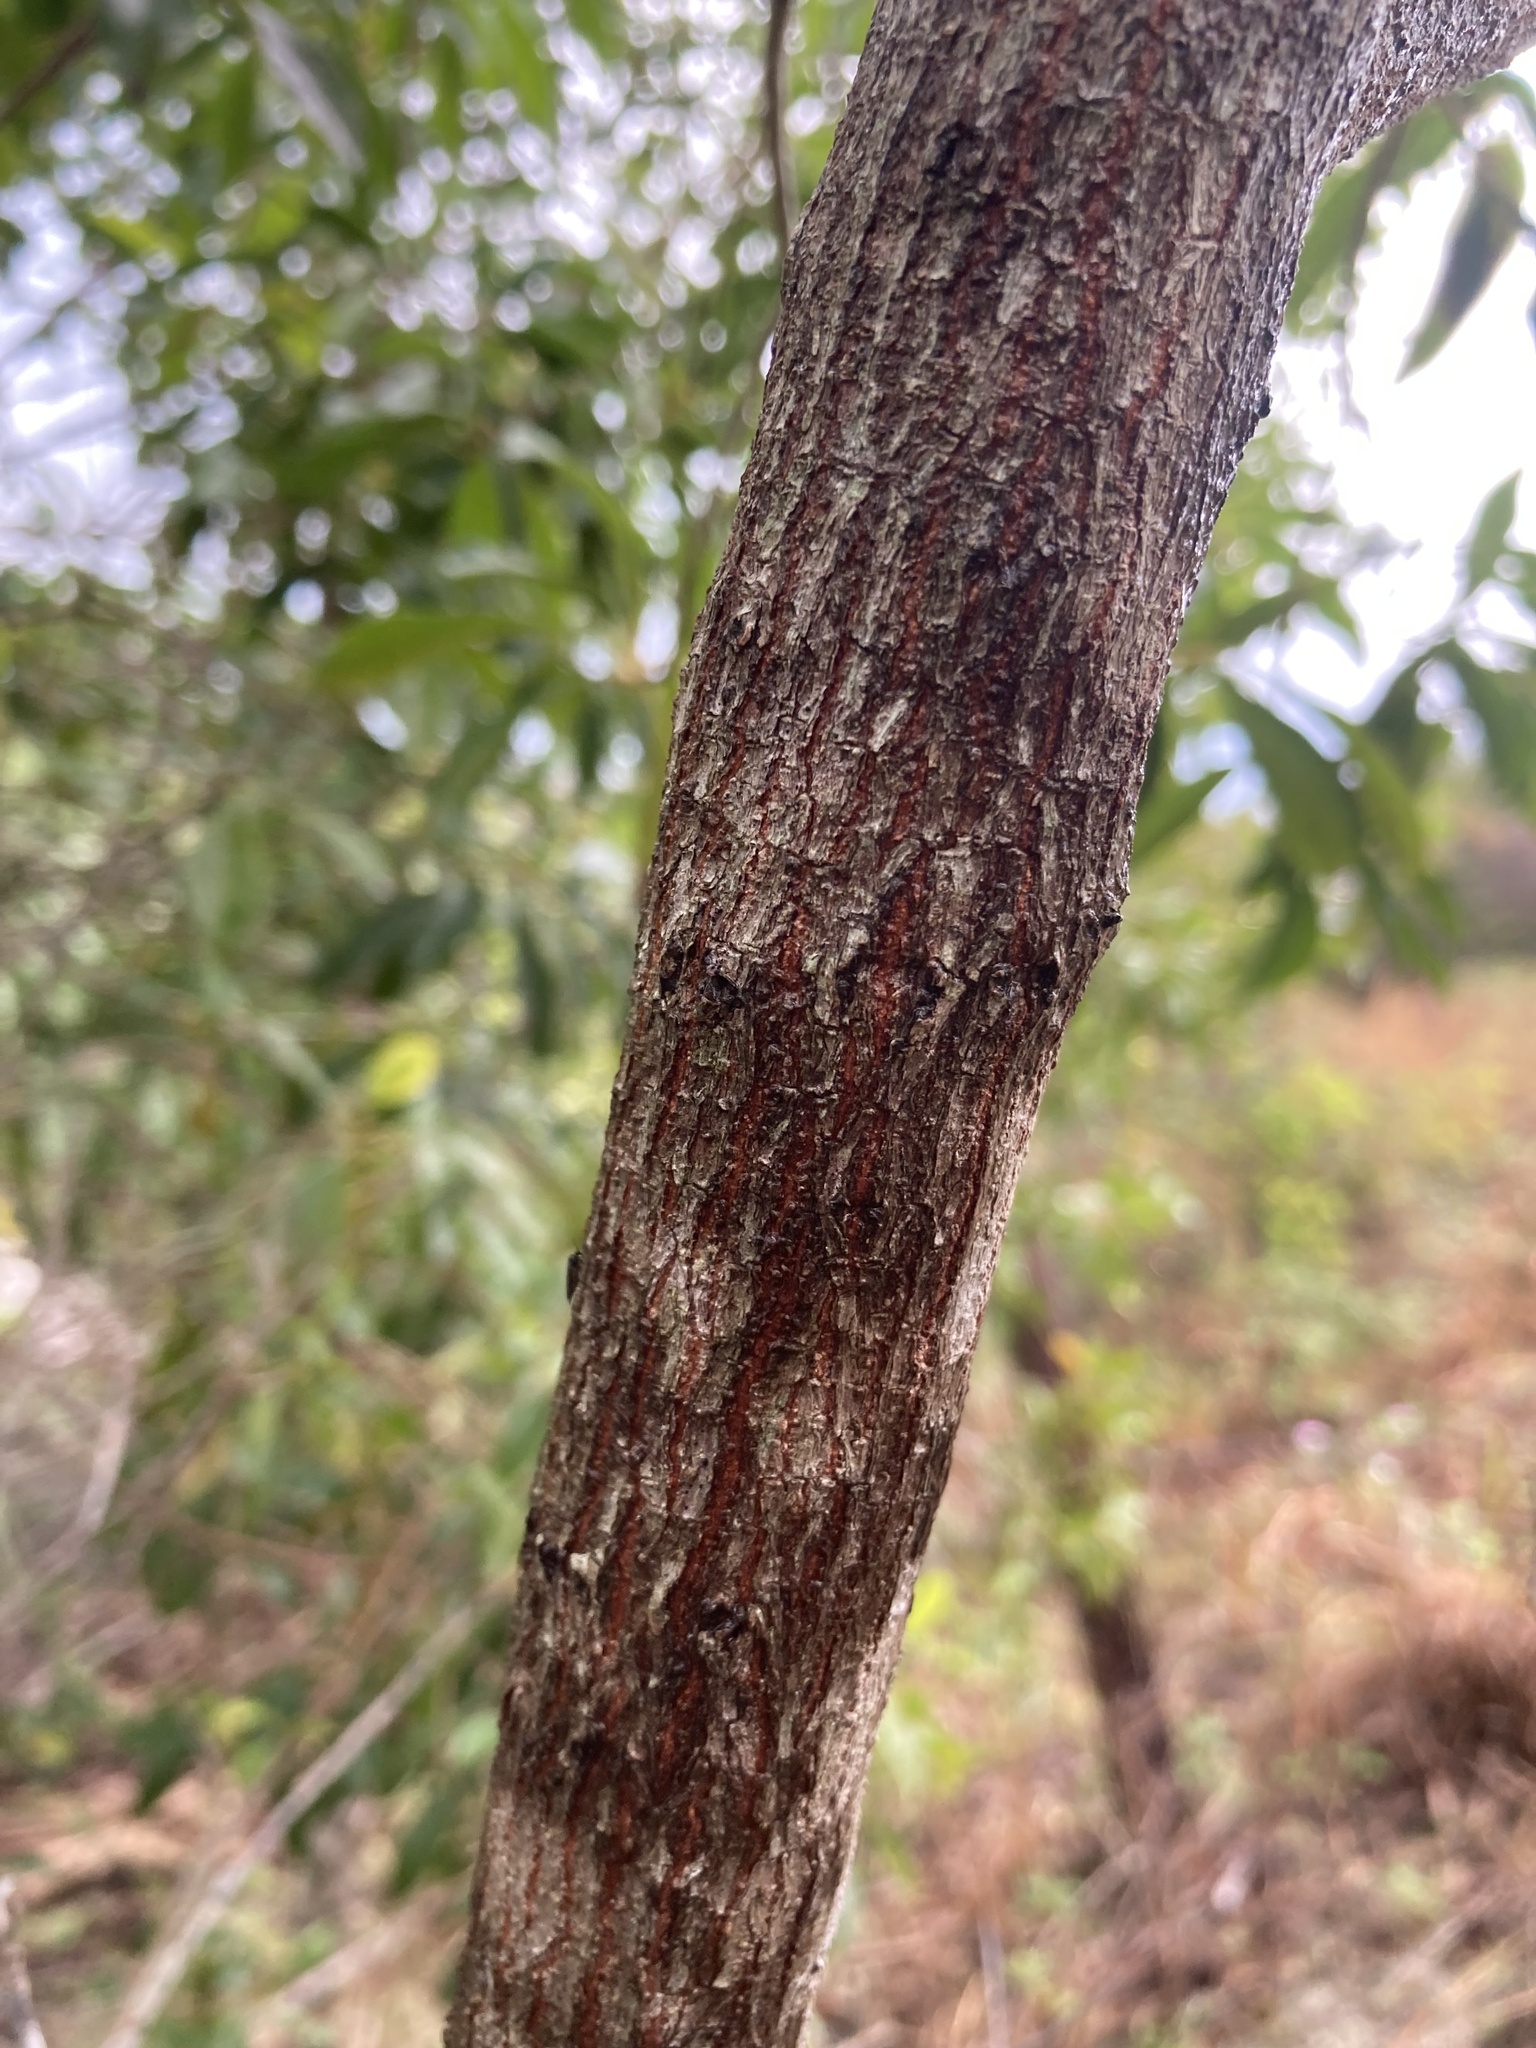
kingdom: Plantae
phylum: Tracheophyta
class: Magnoliopsida
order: Ericales
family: Sapotaceae
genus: Sideroxylon
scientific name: Sideroxylon salicifolium
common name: White bully
